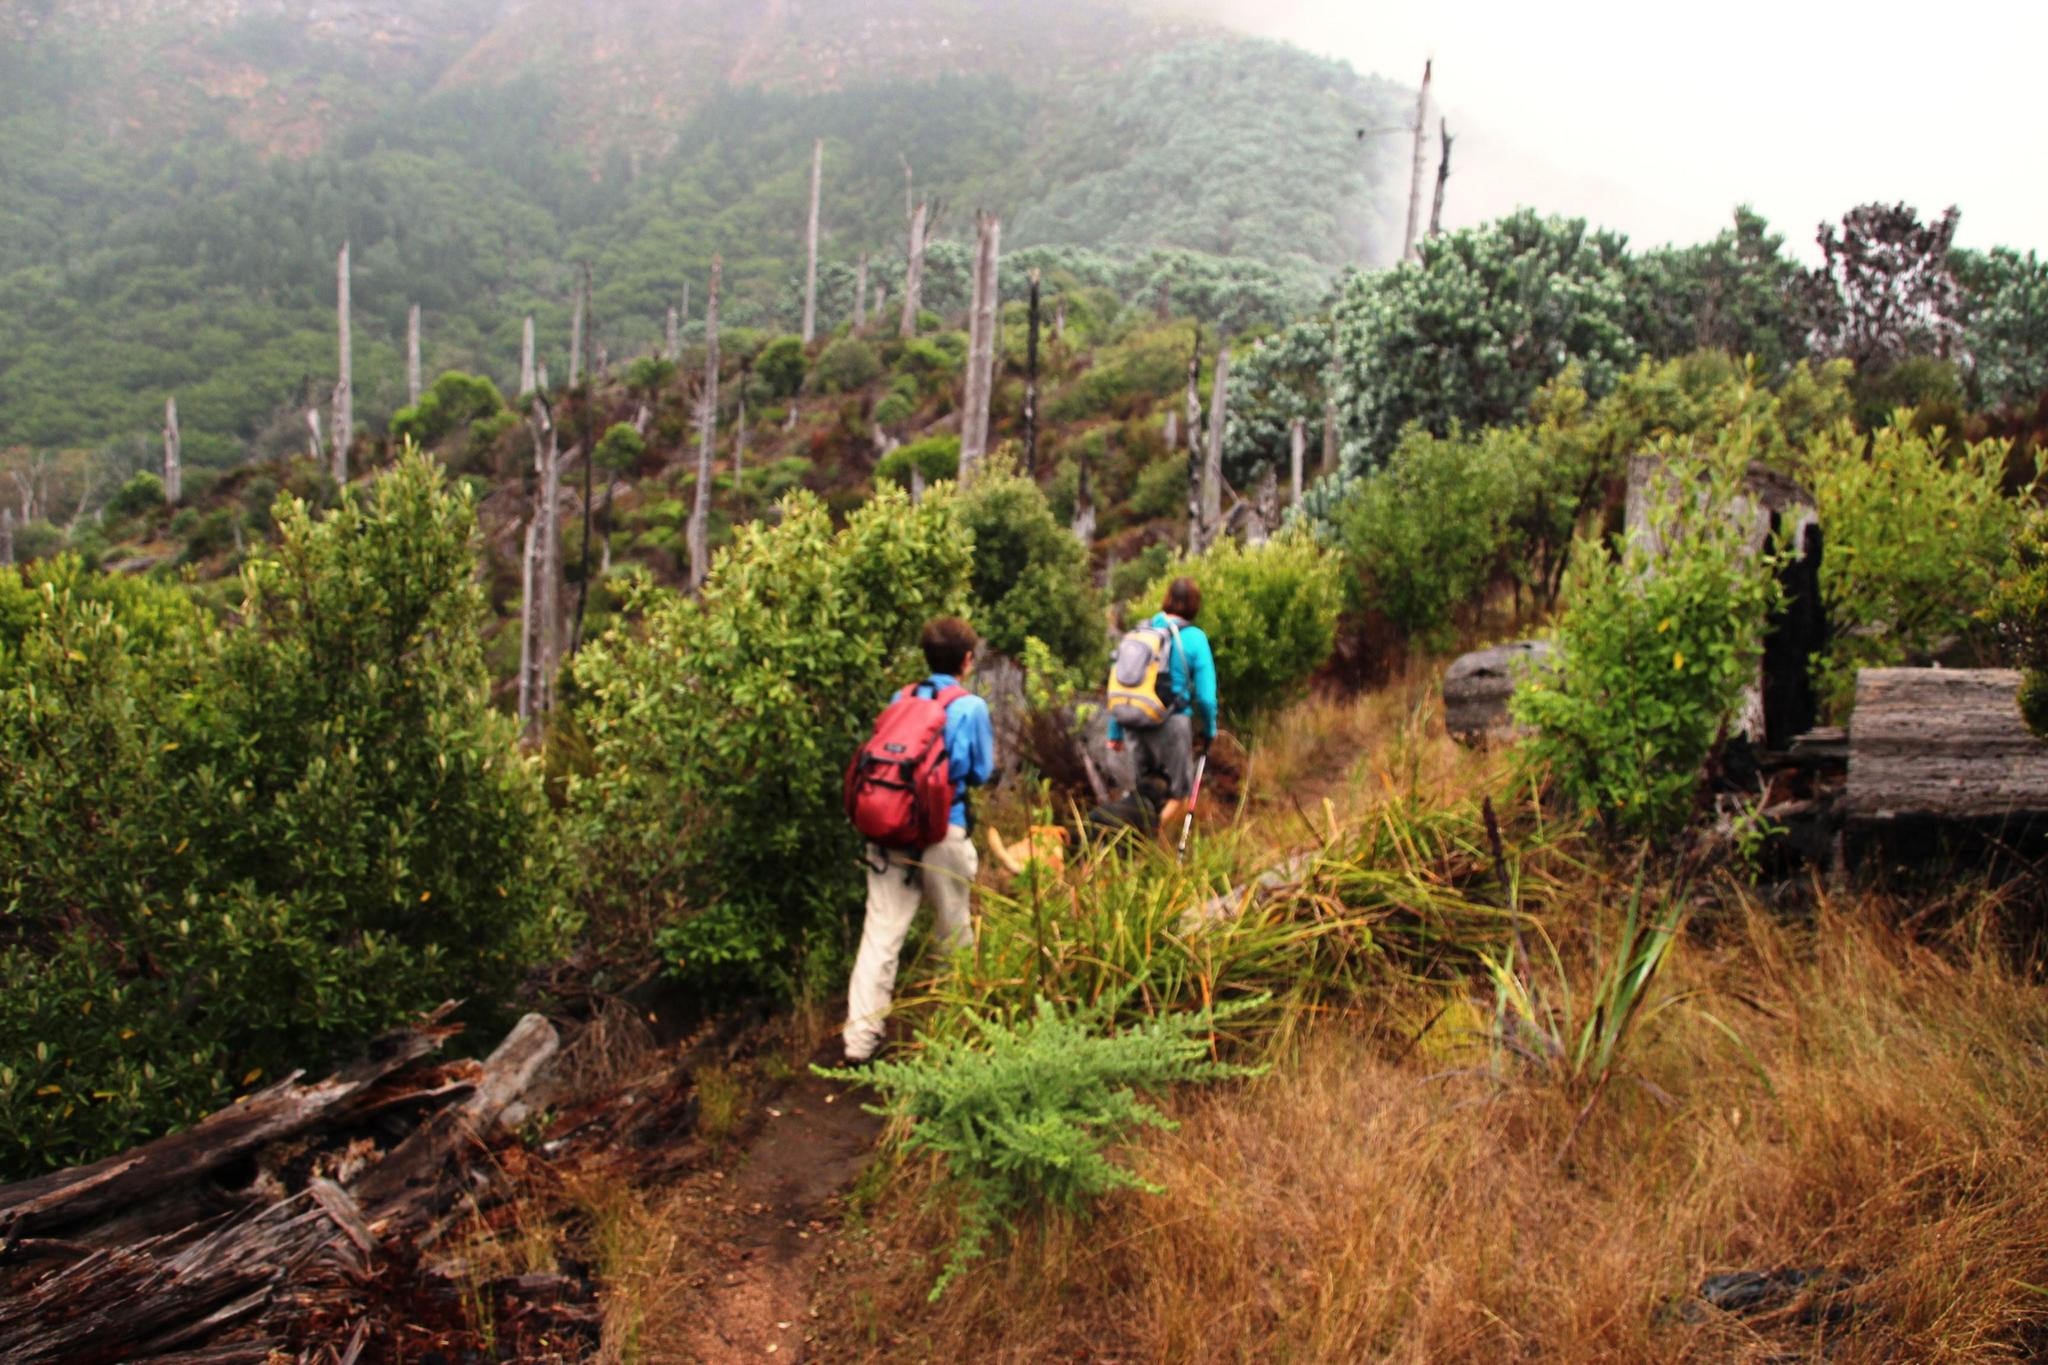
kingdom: Plantae
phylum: Tracheophyta
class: Magnoliopsida
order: Malpighiales
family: Achariaceae
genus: Kiggelaria
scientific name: Kiggelaria africana
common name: Wild peach
